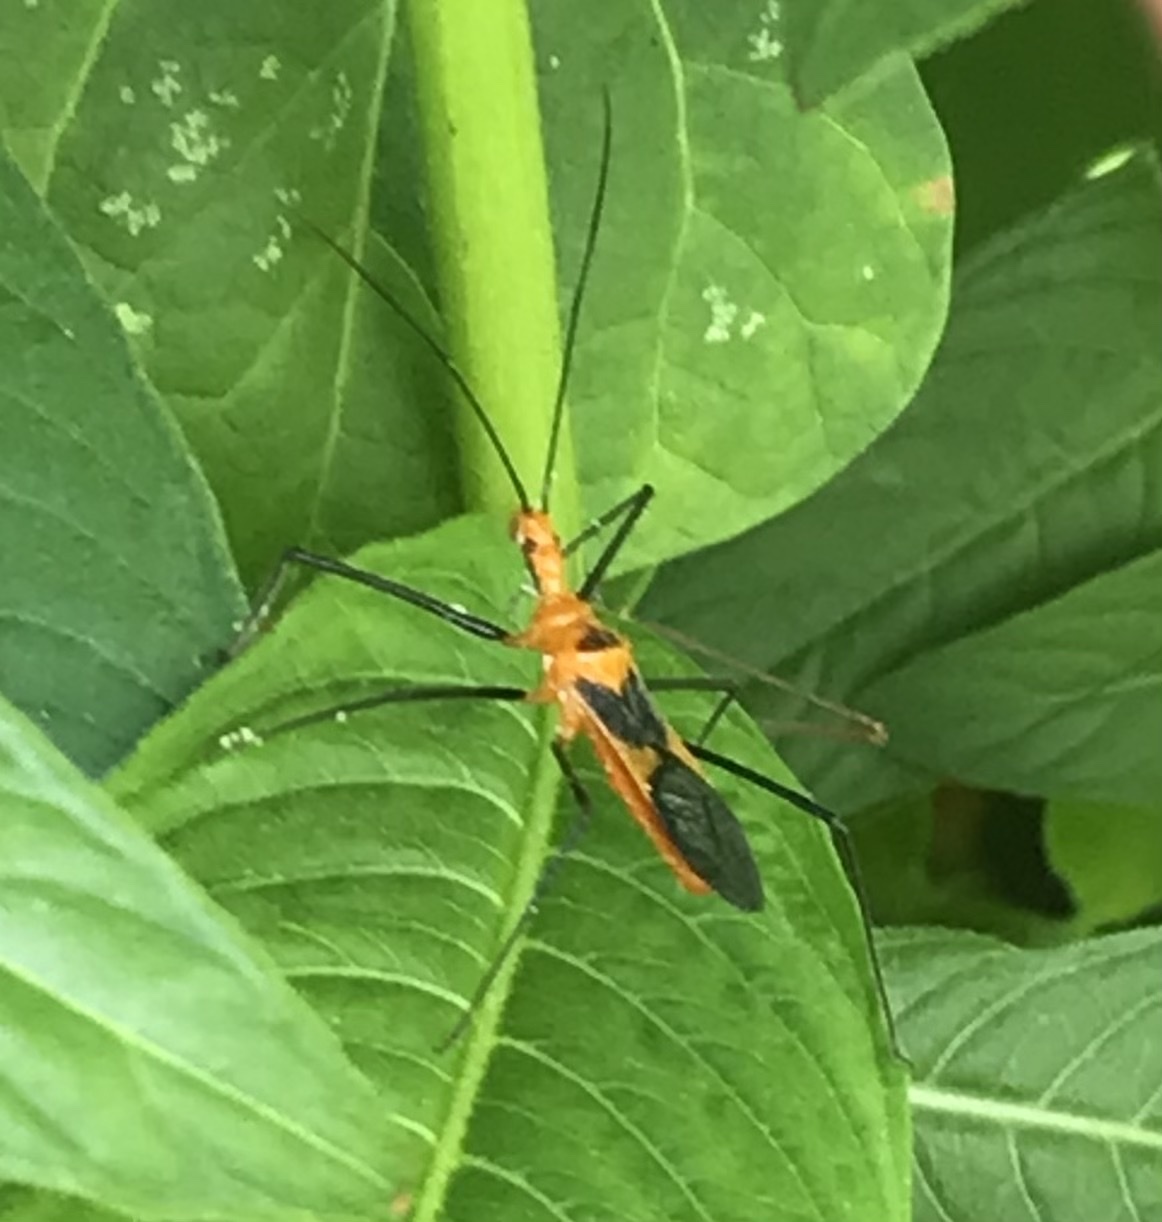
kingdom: Animalia
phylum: Arthropoda
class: Insecta
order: Hemiptera
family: Reduviidae
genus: Zelus
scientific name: Zelus longipes
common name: Milkweed assassin bug
